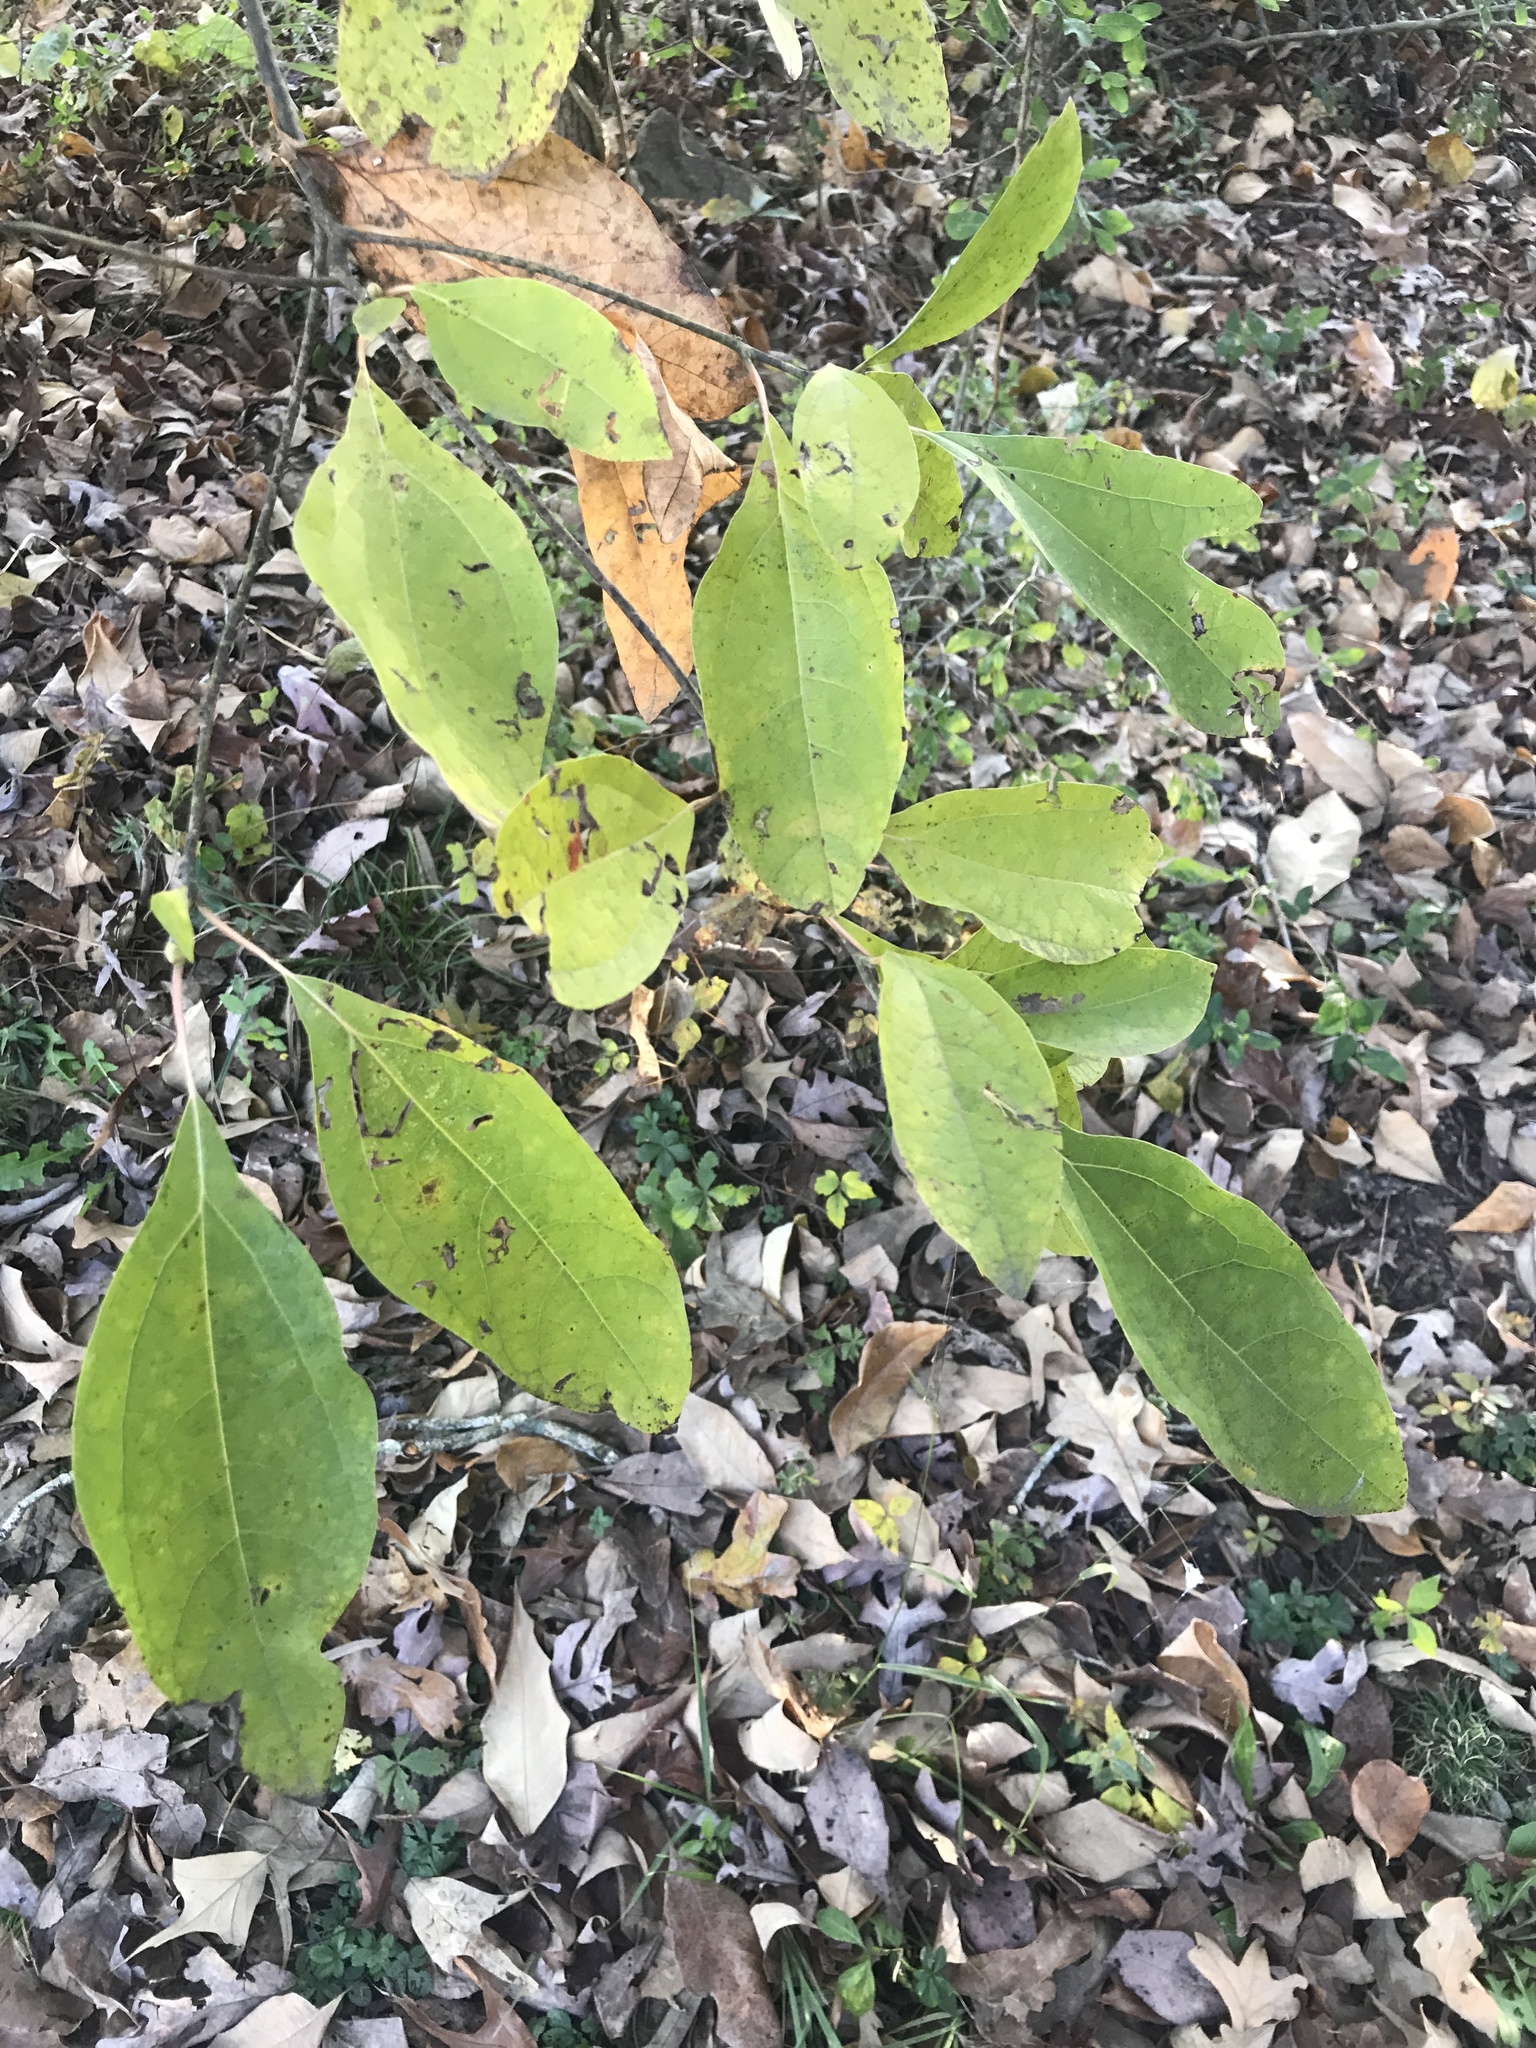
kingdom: Plantae
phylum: Tracheophyta
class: Magnoliopsida
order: Laurales
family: Lauraceae
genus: Sassafras
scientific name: Sassafras albidum
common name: Sassafras
